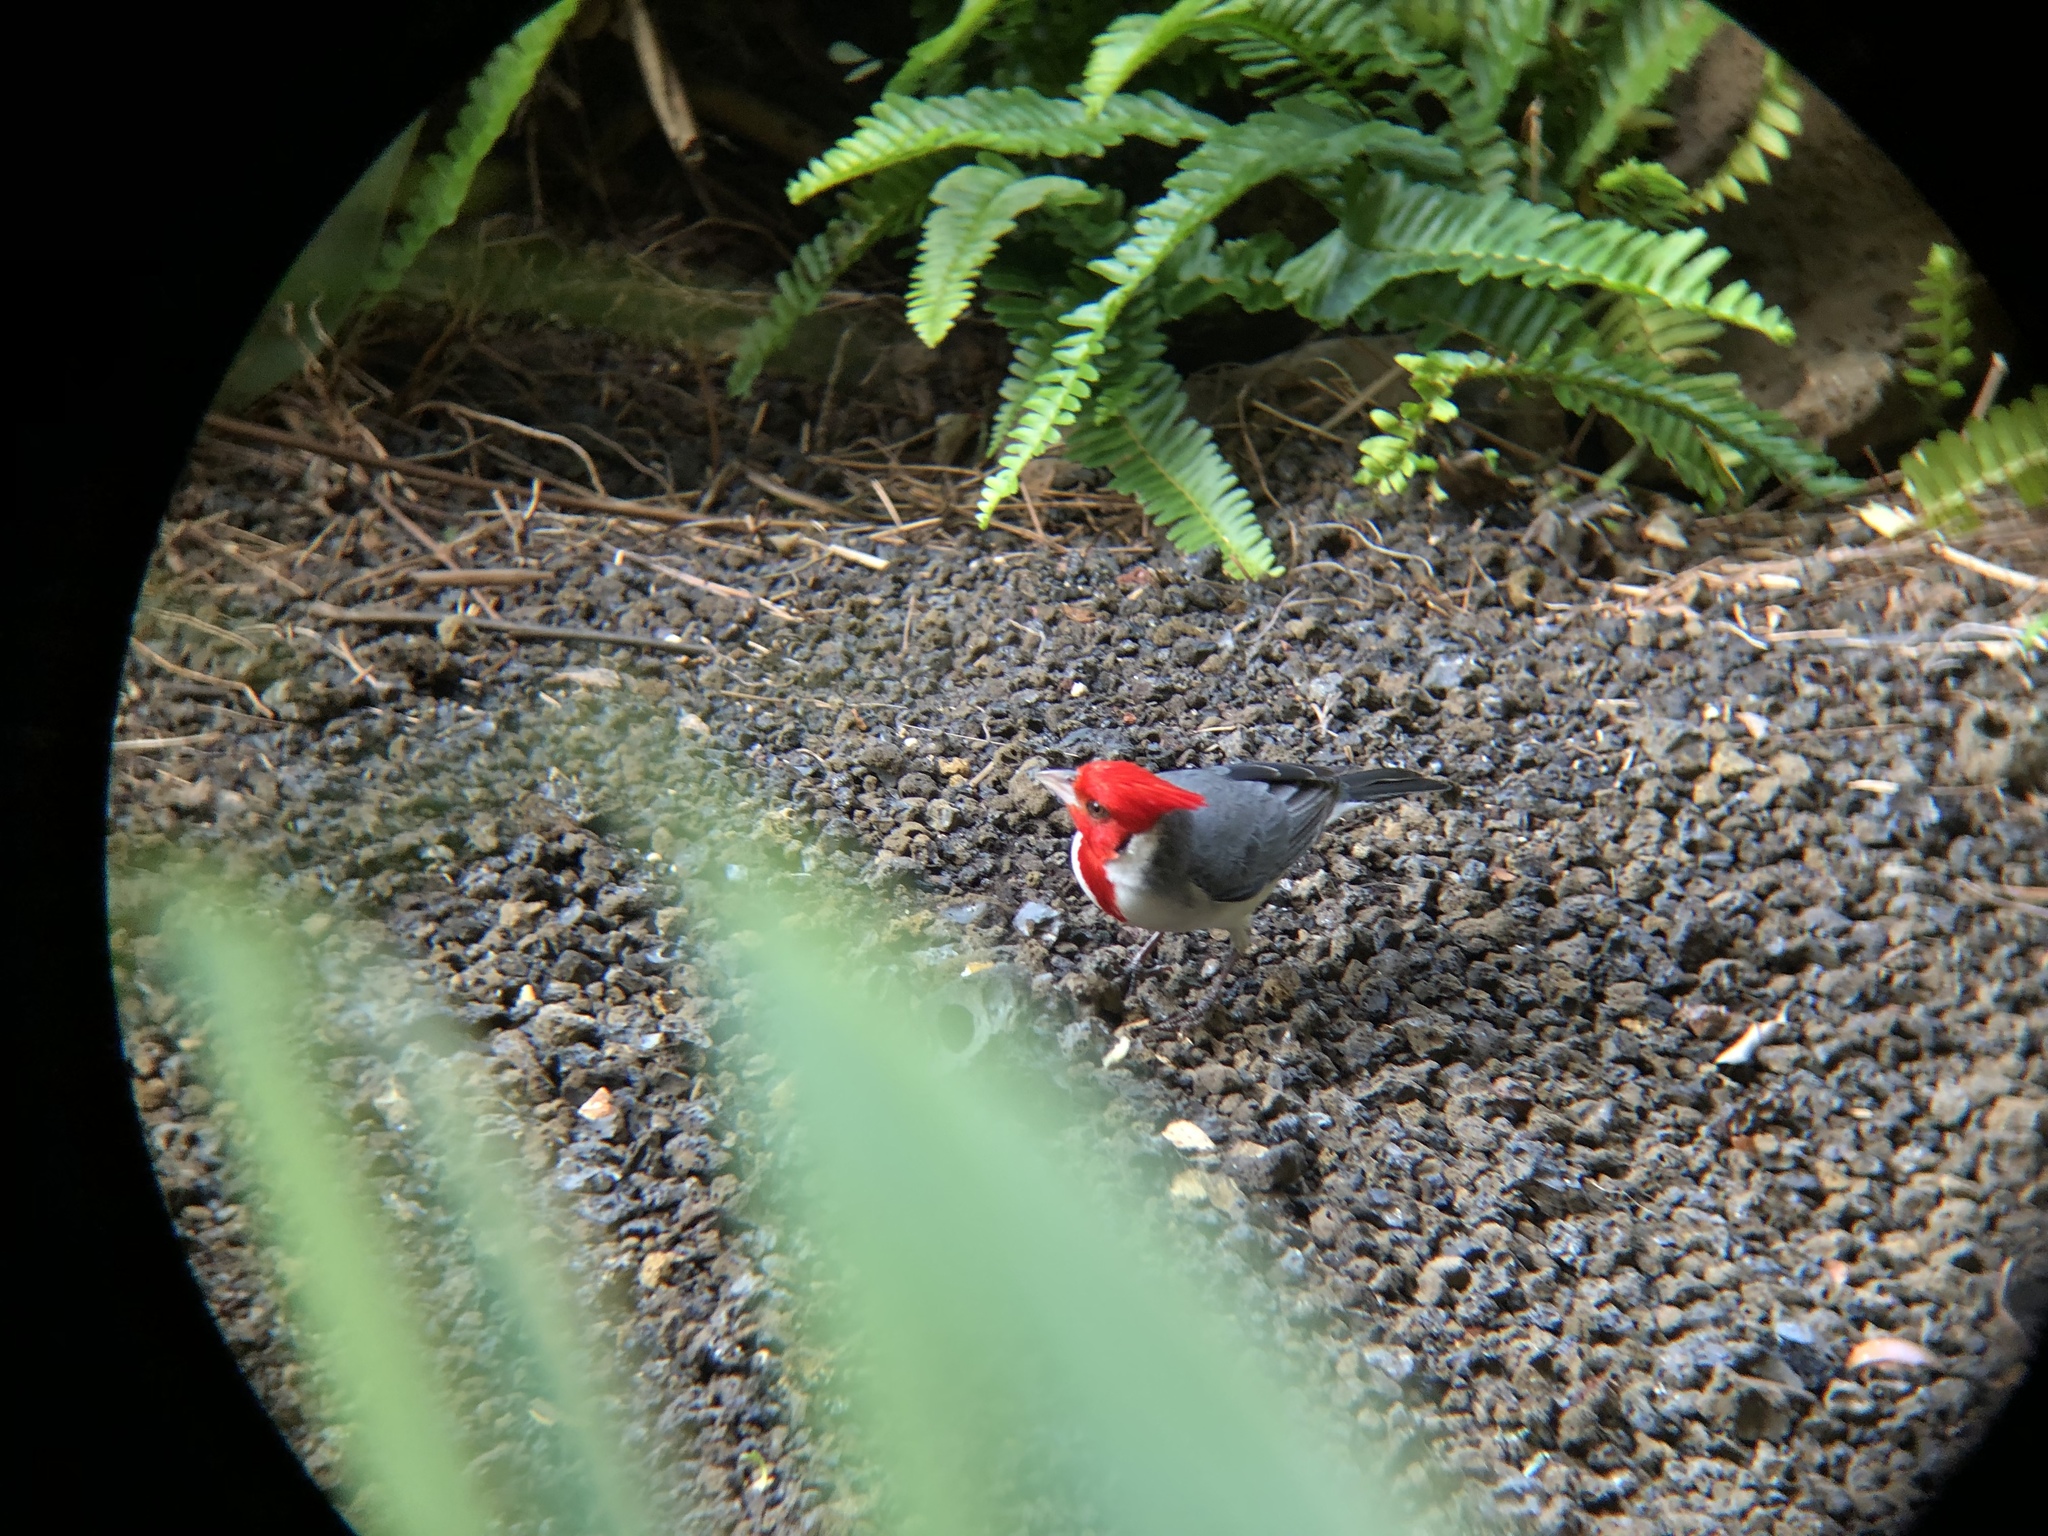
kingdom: Animalia
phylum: Chordata
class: Aves
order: Passeriformes
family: Thraupidae
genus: Paroaria
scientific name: Paroaria coronata
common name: Red-crested cardinal
